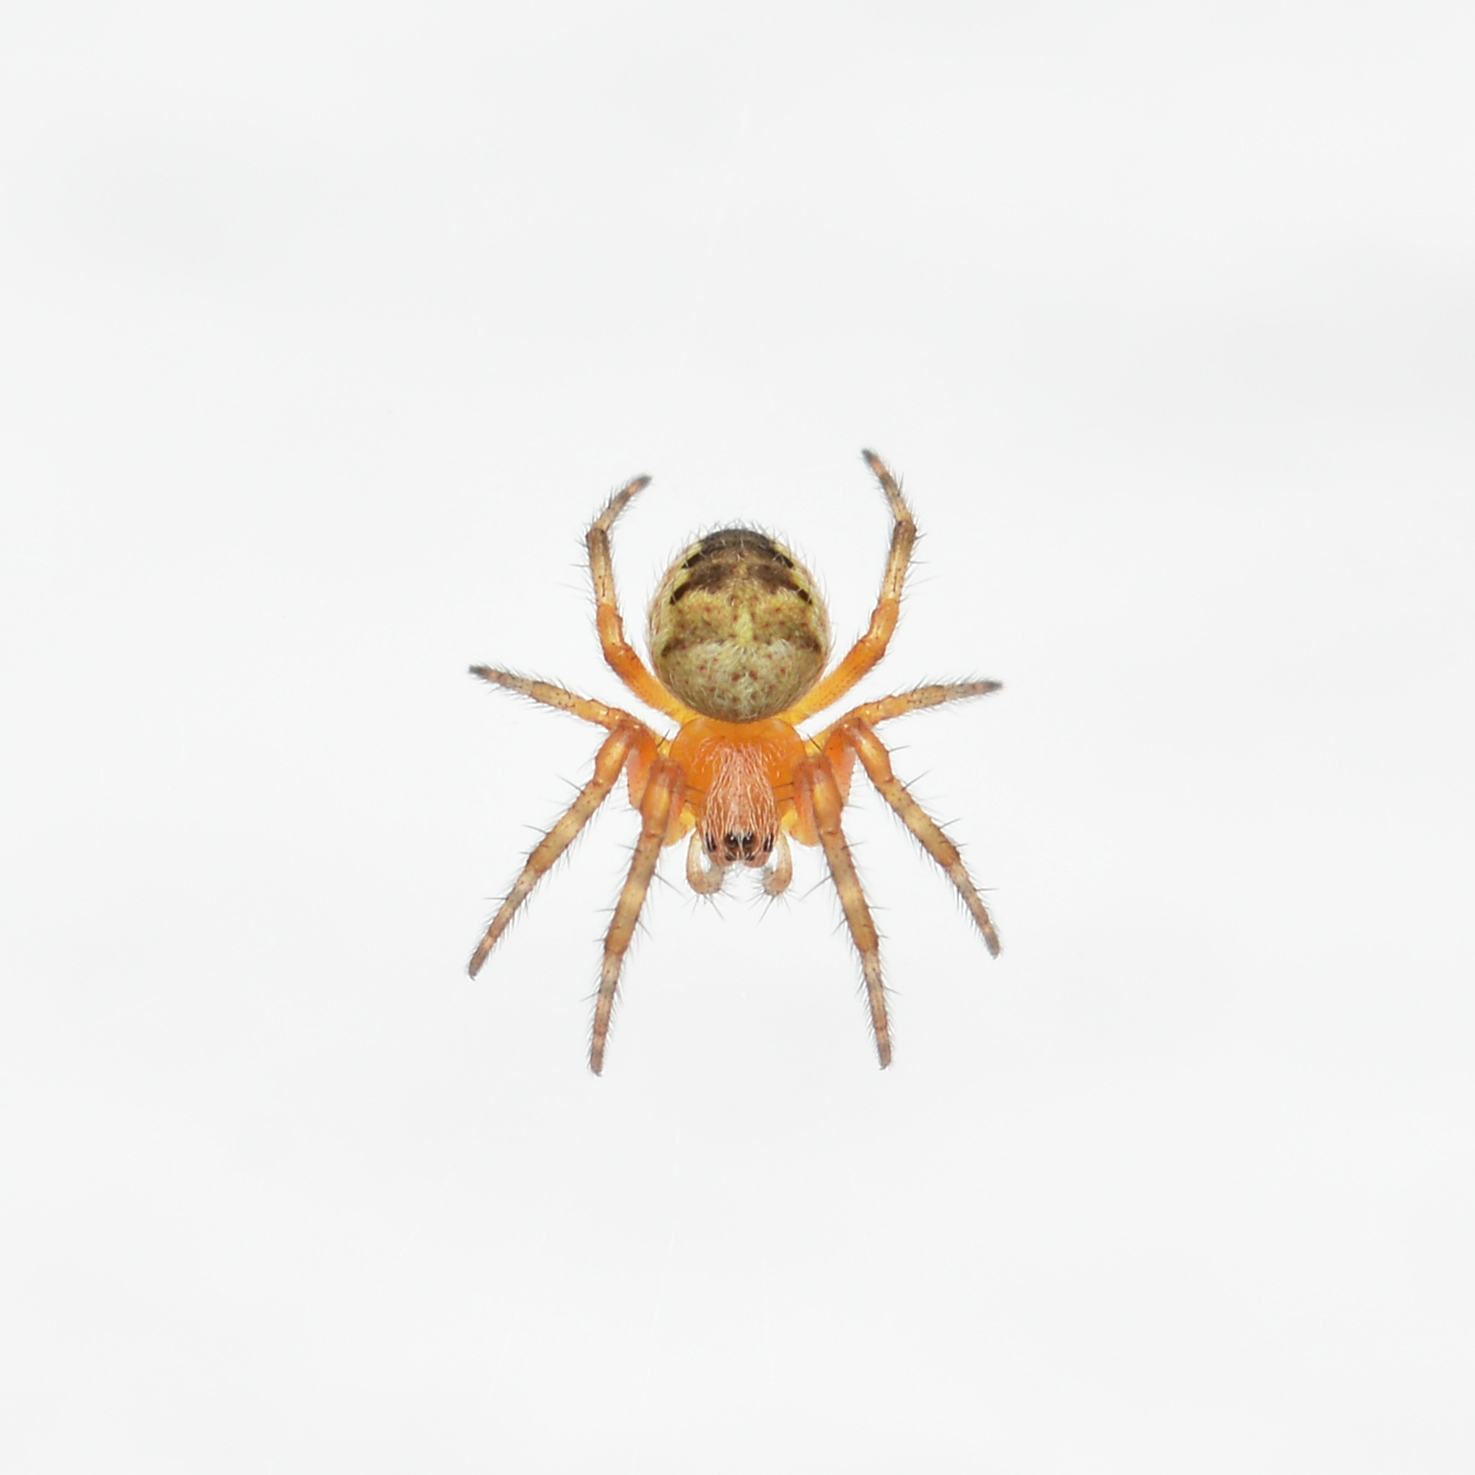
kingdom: Animalia
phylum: Arthropoda
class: Arachnida
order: Araneae
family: Araneidae
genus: Araneus
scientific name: Araneus diadematus
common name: Cross orbweaver
